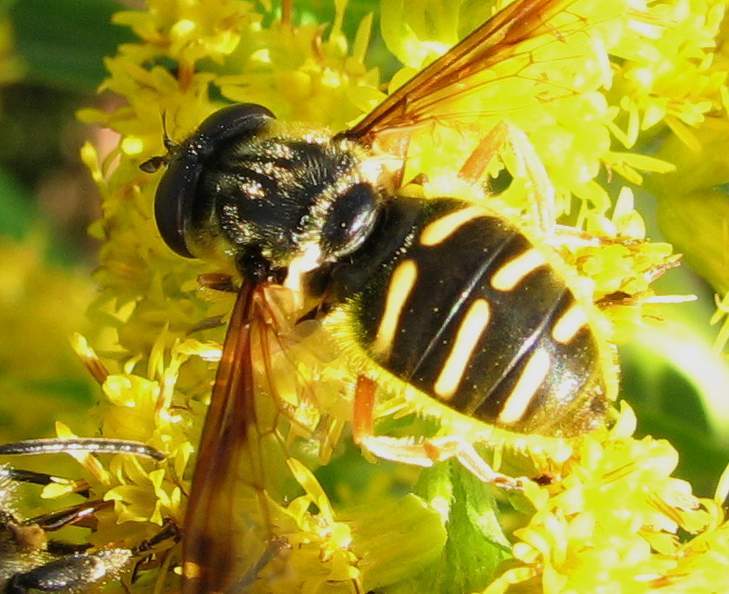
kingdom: Animalia
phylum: Arthropoda
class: Insecta
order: Diptera
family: Syrphidae
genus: Sericomyia
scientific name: Sericomyia chrysotoxoides
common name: Oblique-banded pond fly
